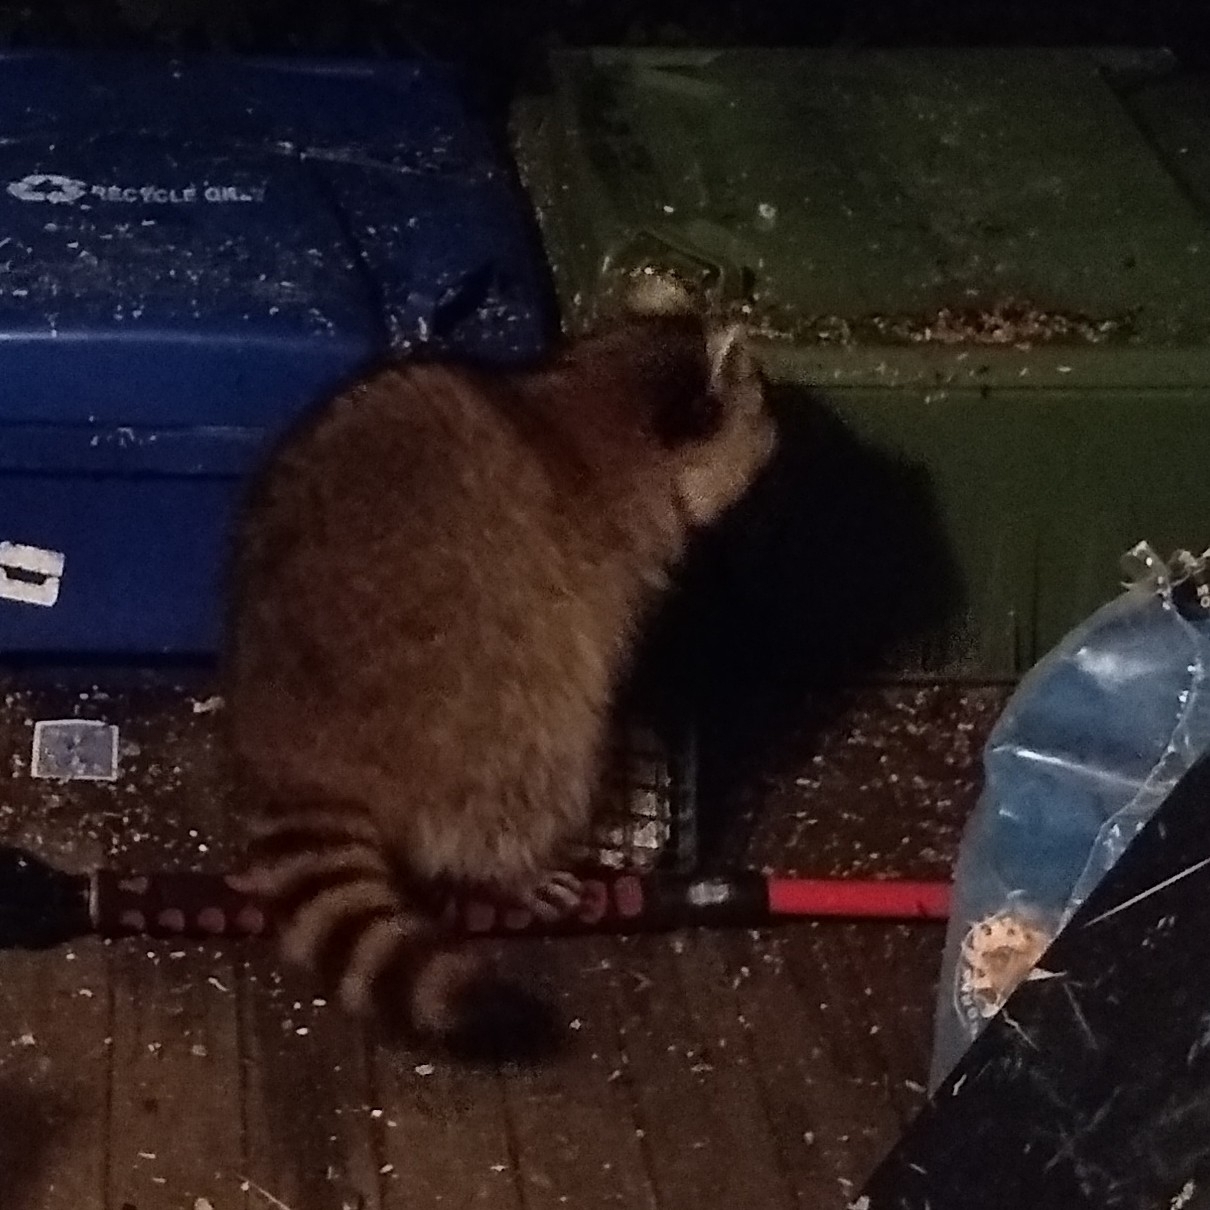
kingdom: Animalia
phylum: Chordata
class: Mammalia
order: Carnivora
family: Procyonidae
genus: Procyon
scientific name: Procyon lotor
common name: Raccoon
